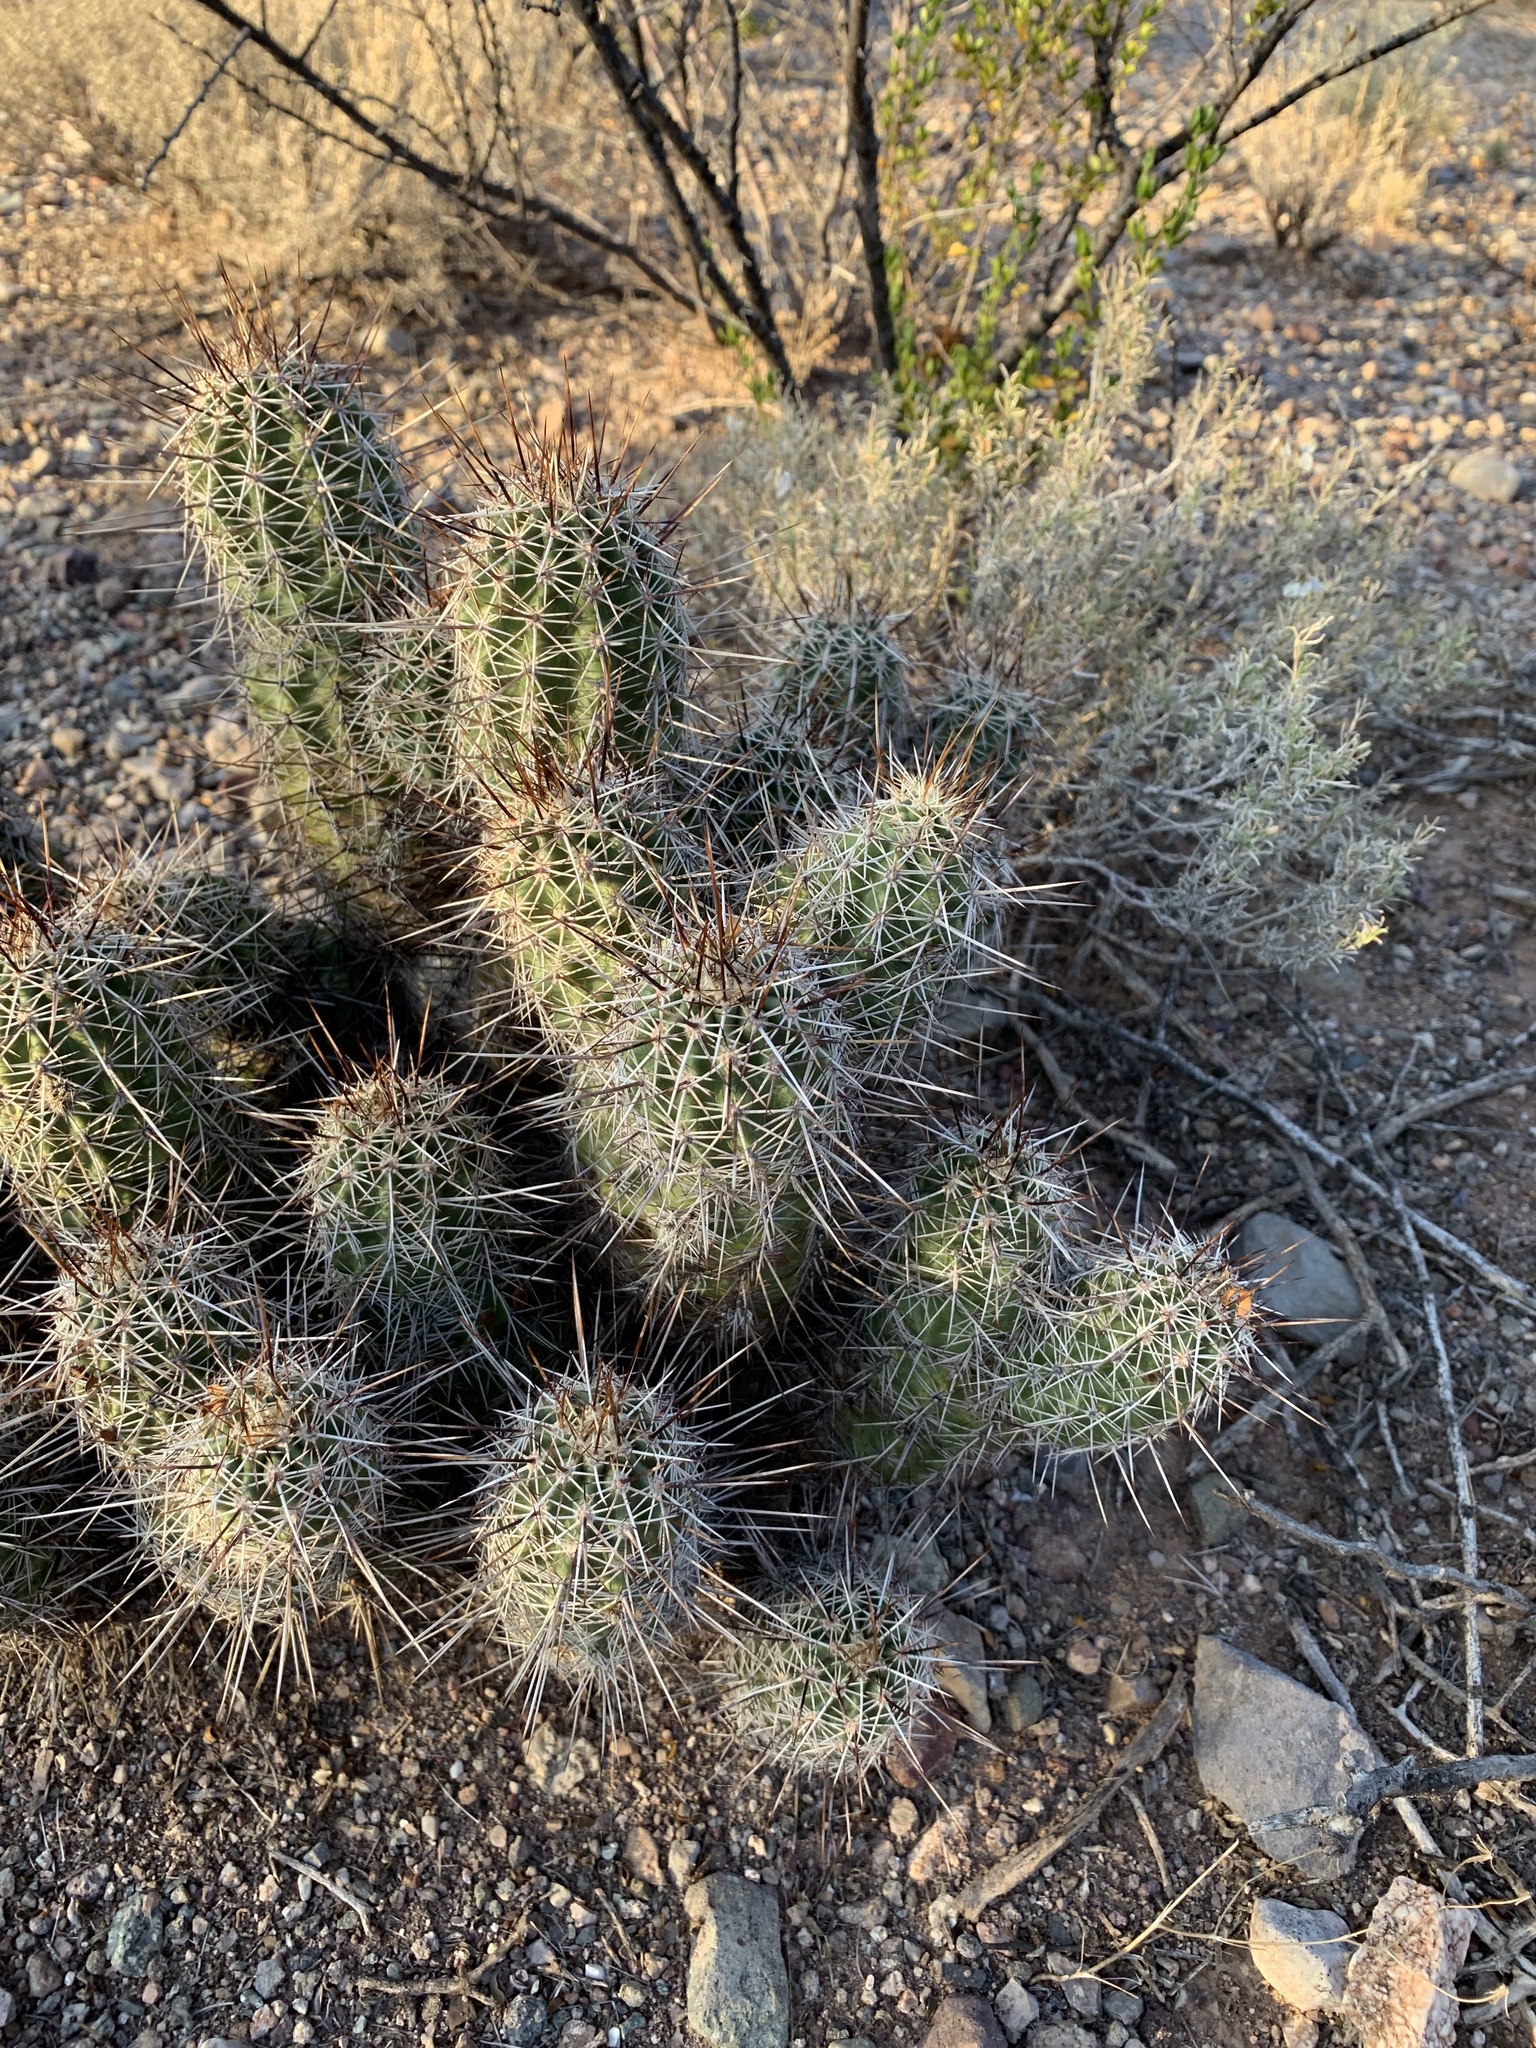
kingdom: Plantae
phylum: Tracheophyta
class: Magnoliopsida
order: Caryophyllales
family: Cactaceae
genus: Echinocereus
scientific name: Echinocereus fasciculatus
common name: Bundle hedgehog
